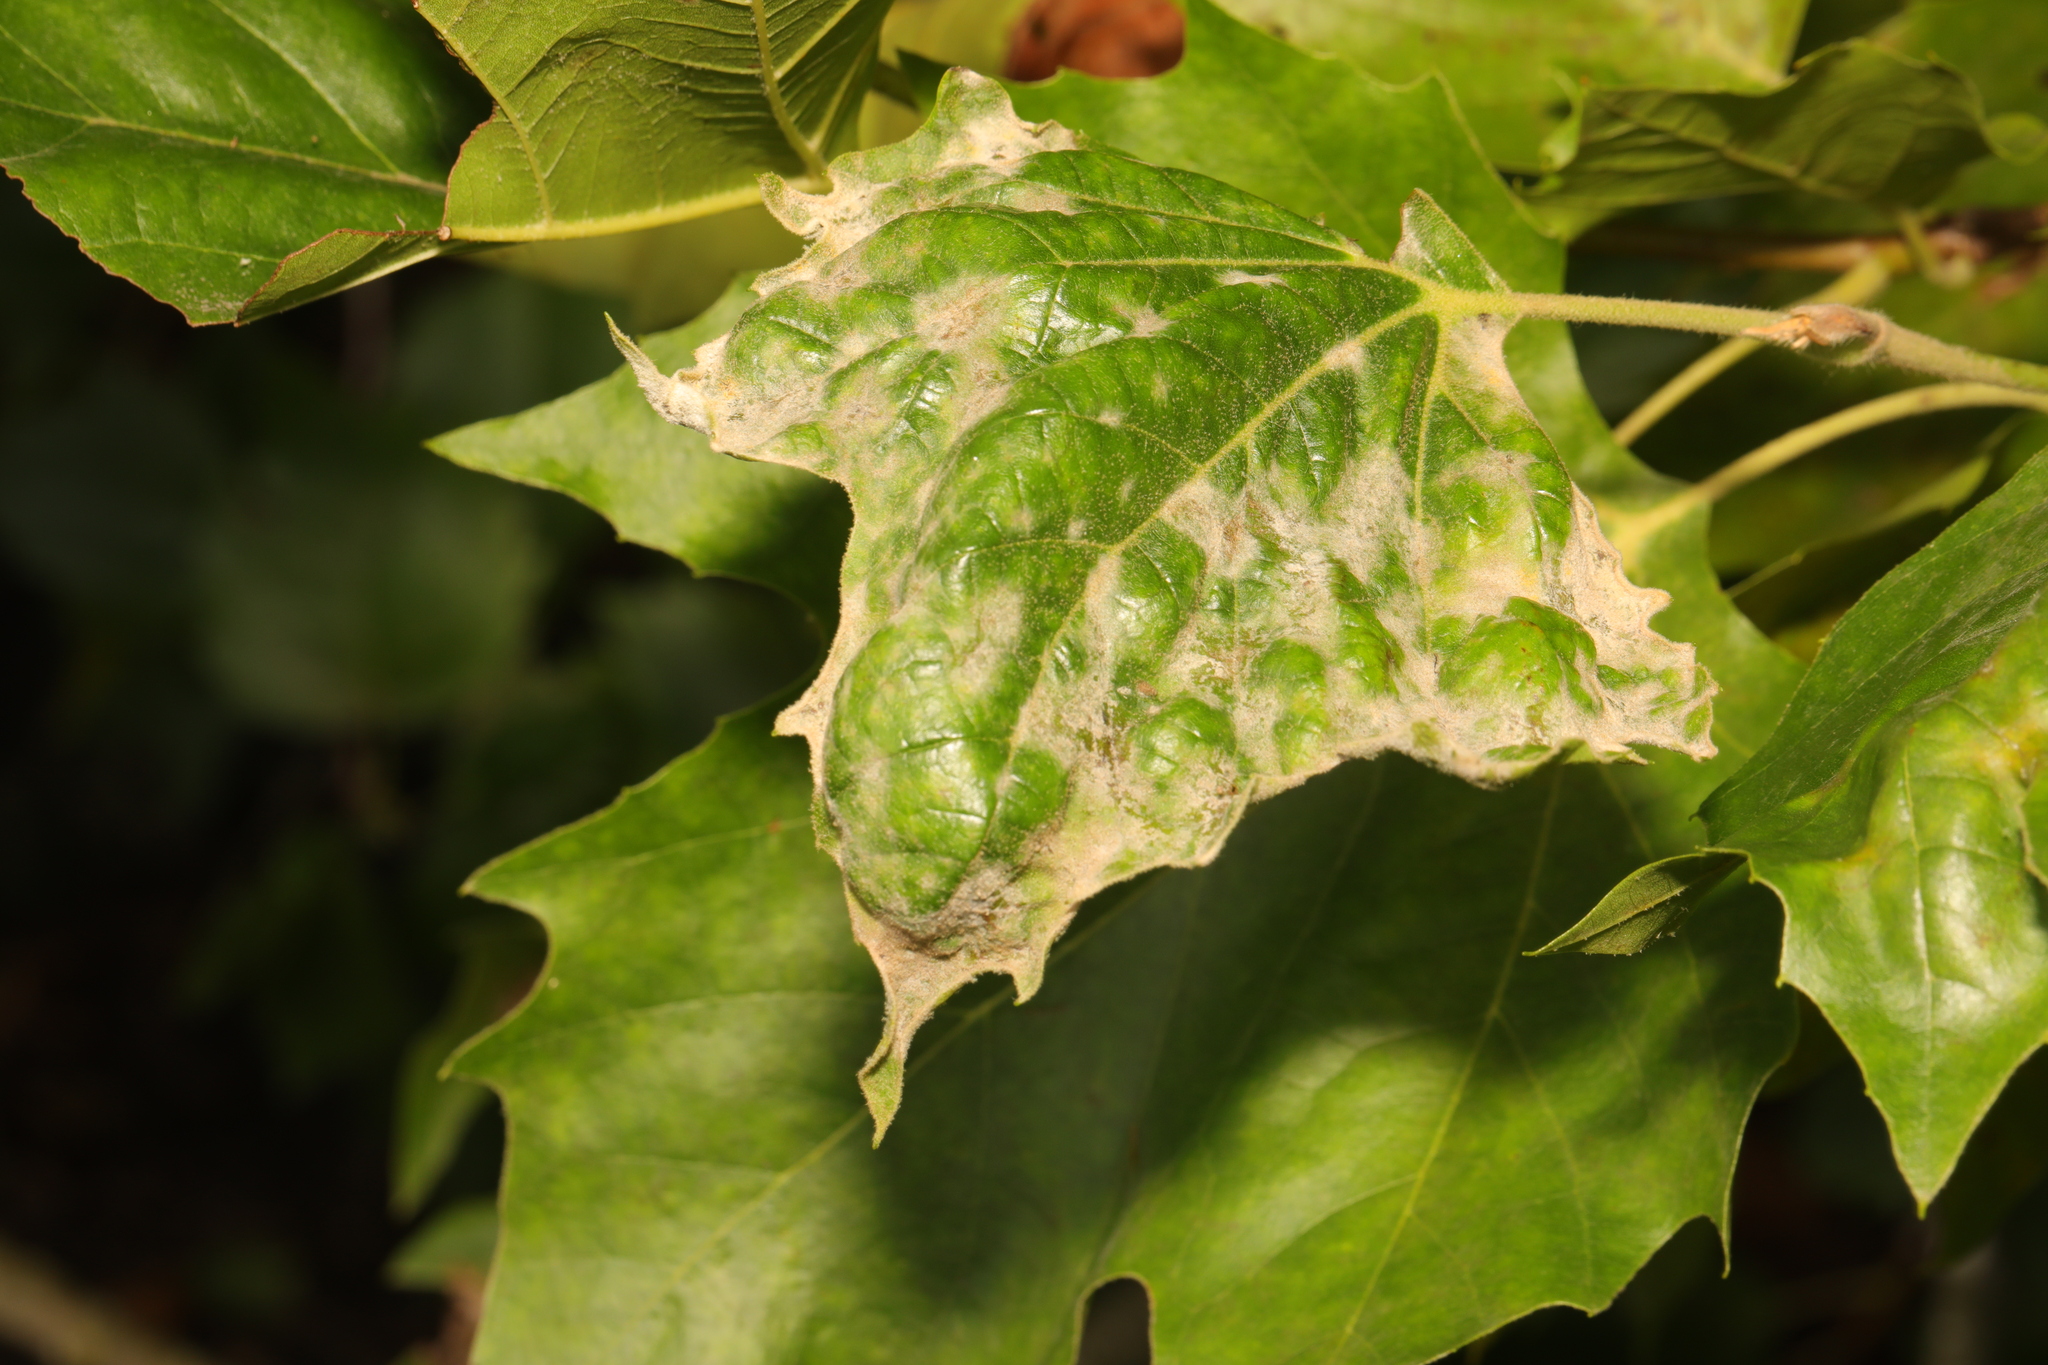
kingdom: Fungi
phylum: Ascomycota
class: Leotiomycetes
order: Helotiales
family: Erysiphaceae
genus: Erysiphe
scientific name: Erysiphe platani
